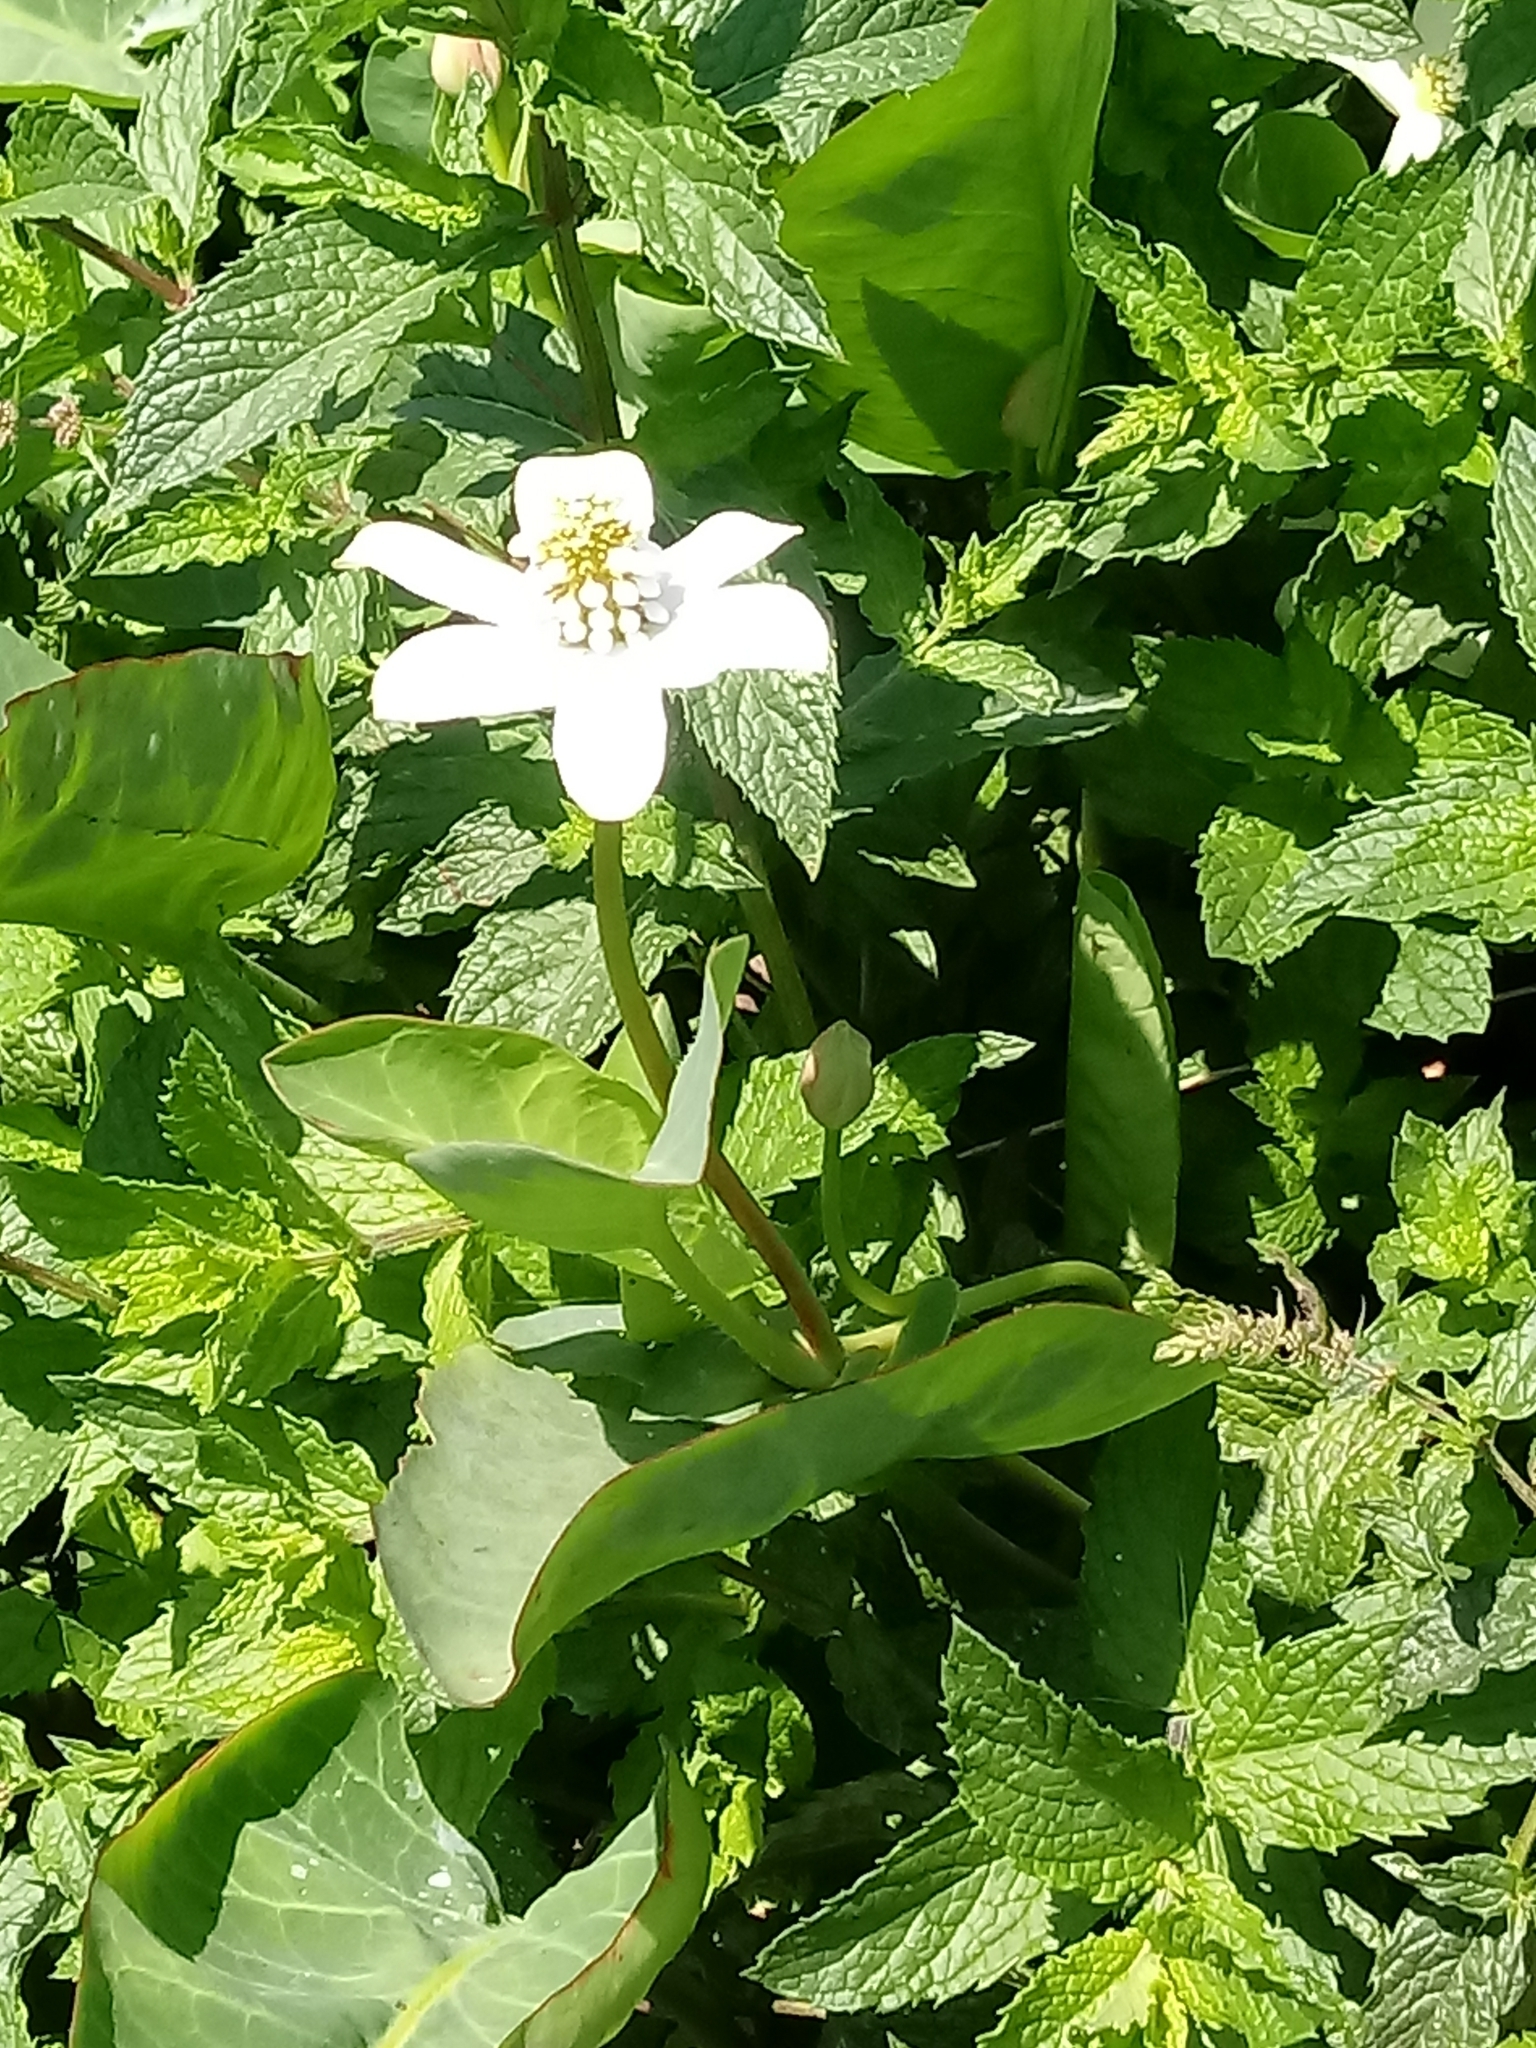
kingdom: Plantae
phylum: Tracheophyta
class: Magnoliopsida
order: Piperales
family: Saururaceae
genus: Anemopsis
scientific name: Anemopsis californica
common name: Apache-beads
